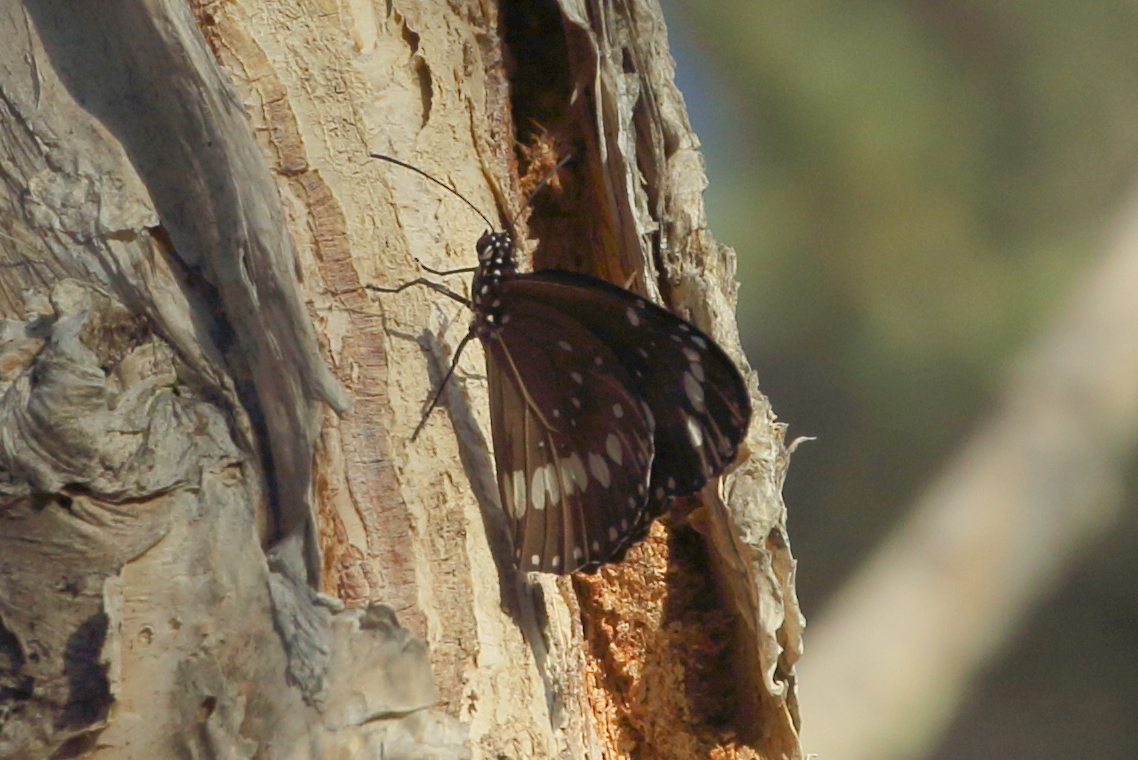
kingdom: Animalia
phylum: Arthropoda
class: Insecta
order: Lepidoptera
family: Nymphalidae
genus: Euploea
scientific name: Euploea core
